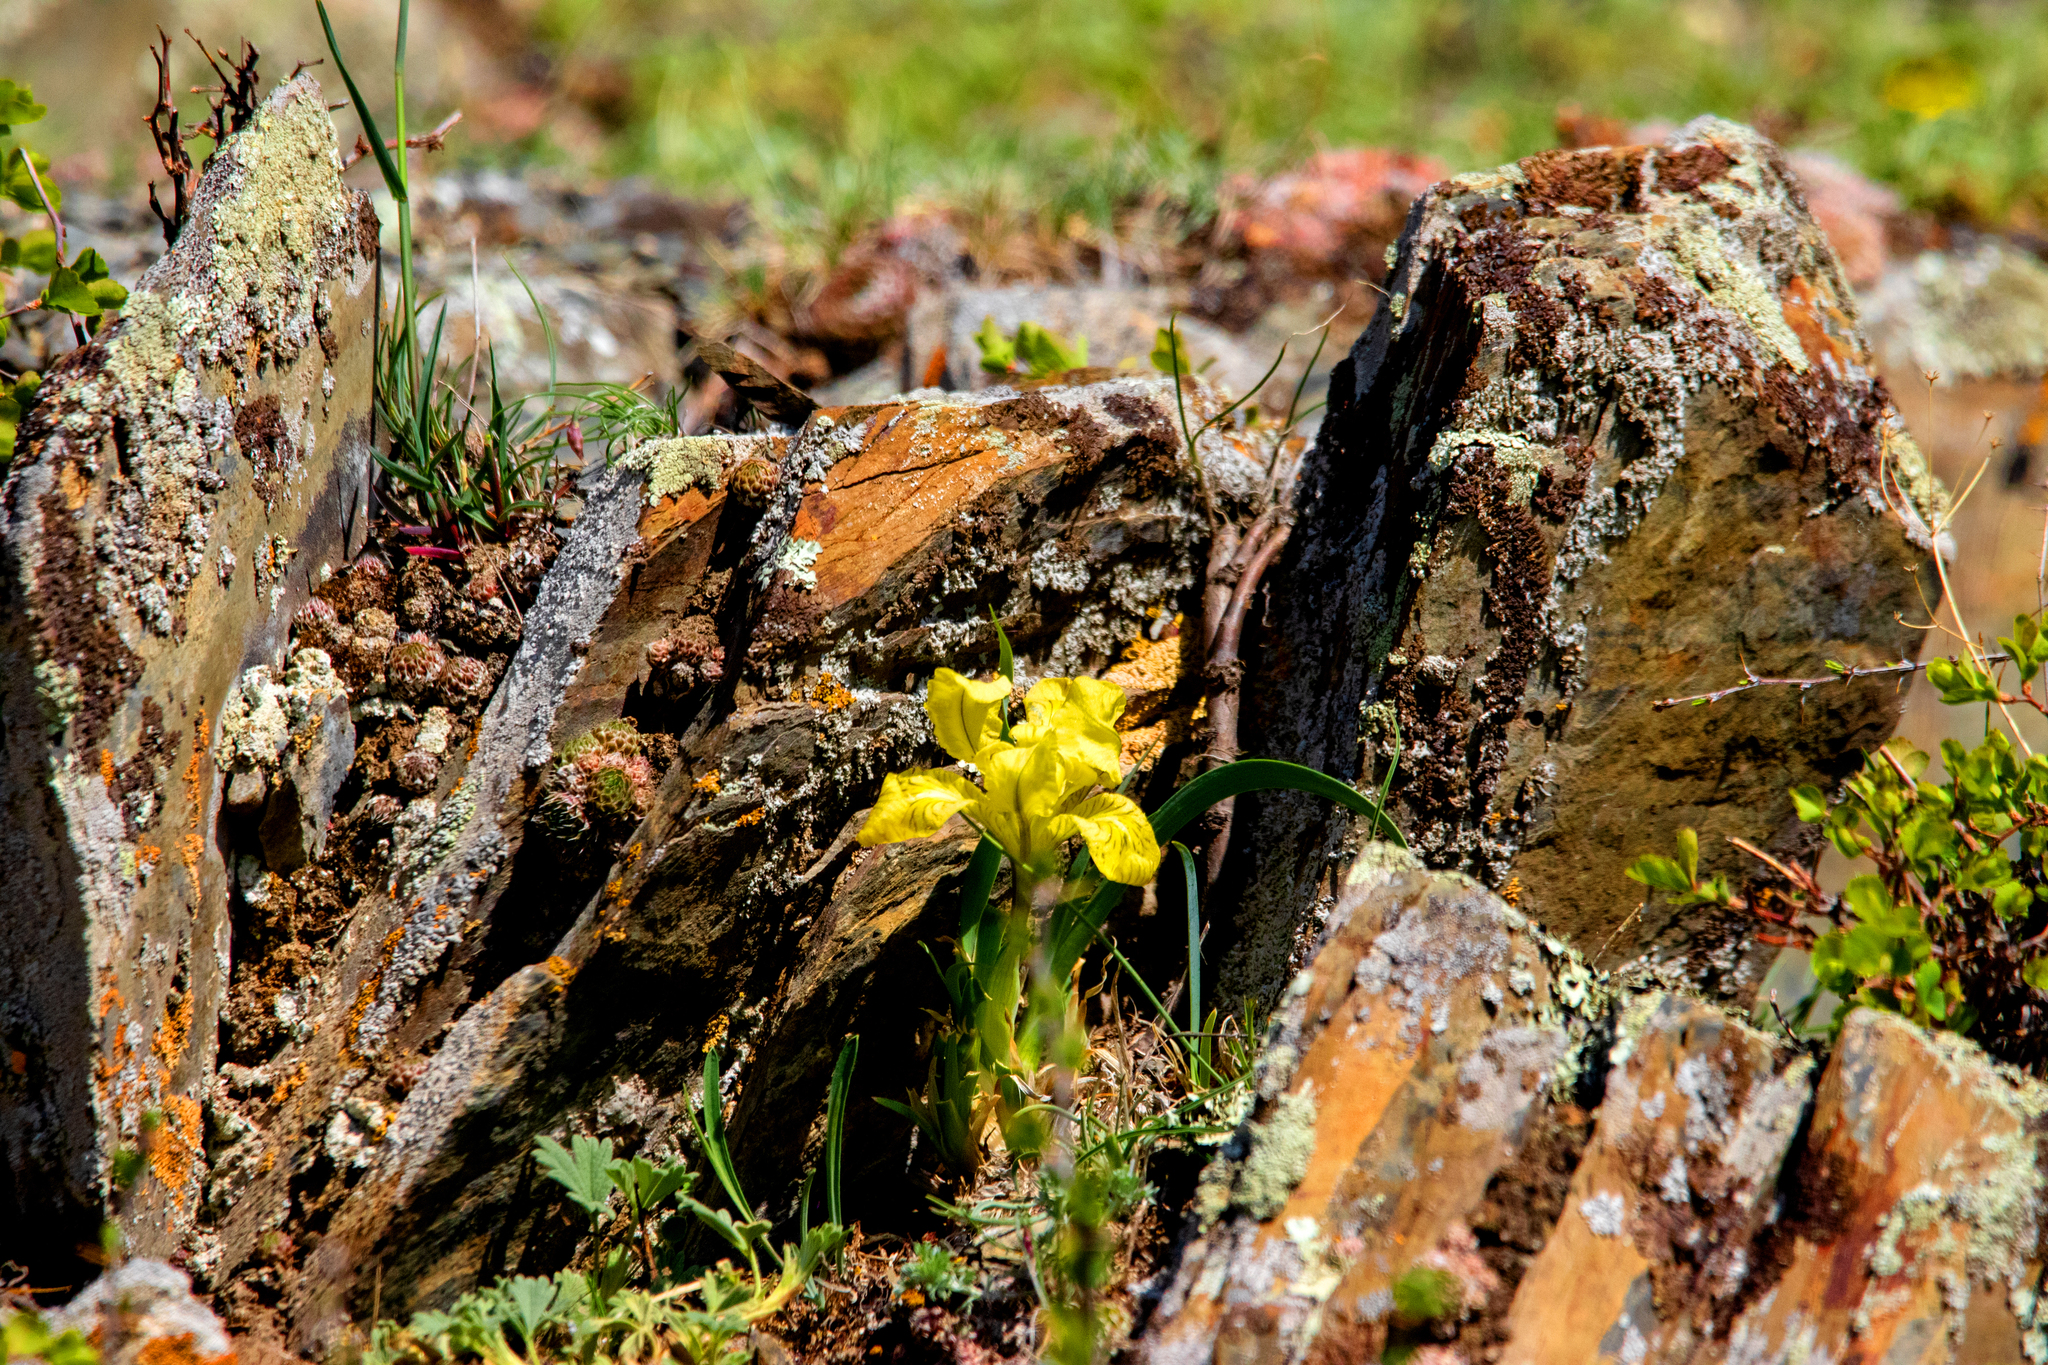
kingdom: Plantae
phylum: Tracheophyta
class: Liliopsida
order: Asparagales
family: Iridaceae
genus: Iris
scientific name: Iris potaninii
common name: Curl-sheath iris
